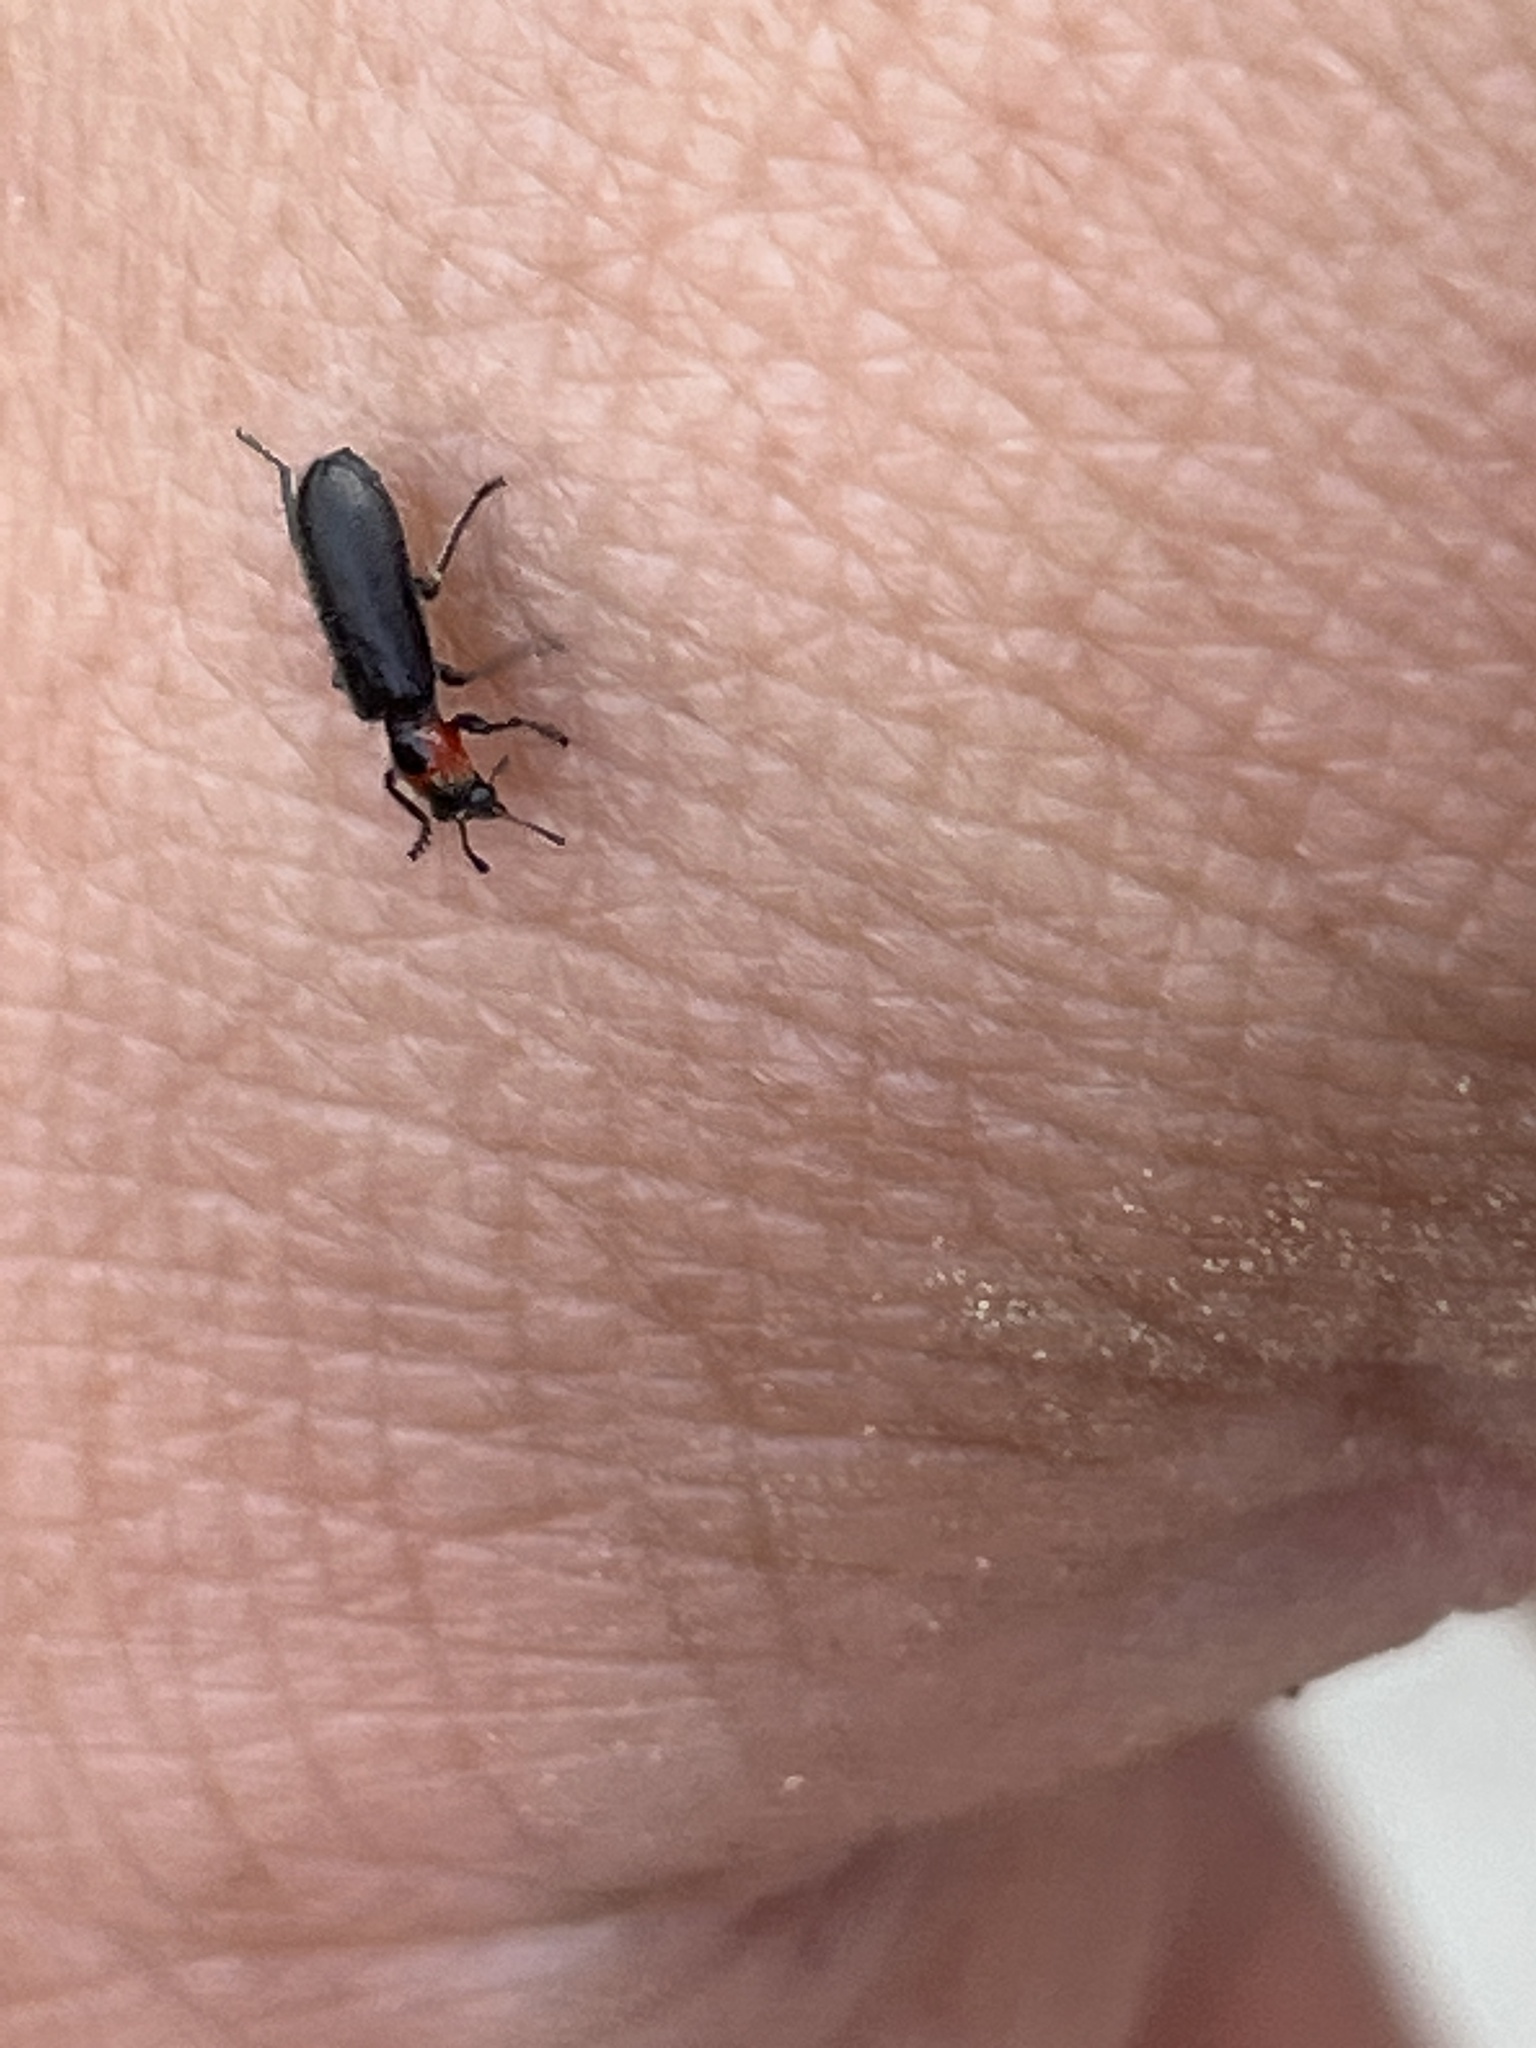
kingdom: Animalia
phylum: Arthropoda
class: Insecta
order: Coleoptera
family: Cleridae
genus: Placopterus
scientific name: Placopterus thoracicus
